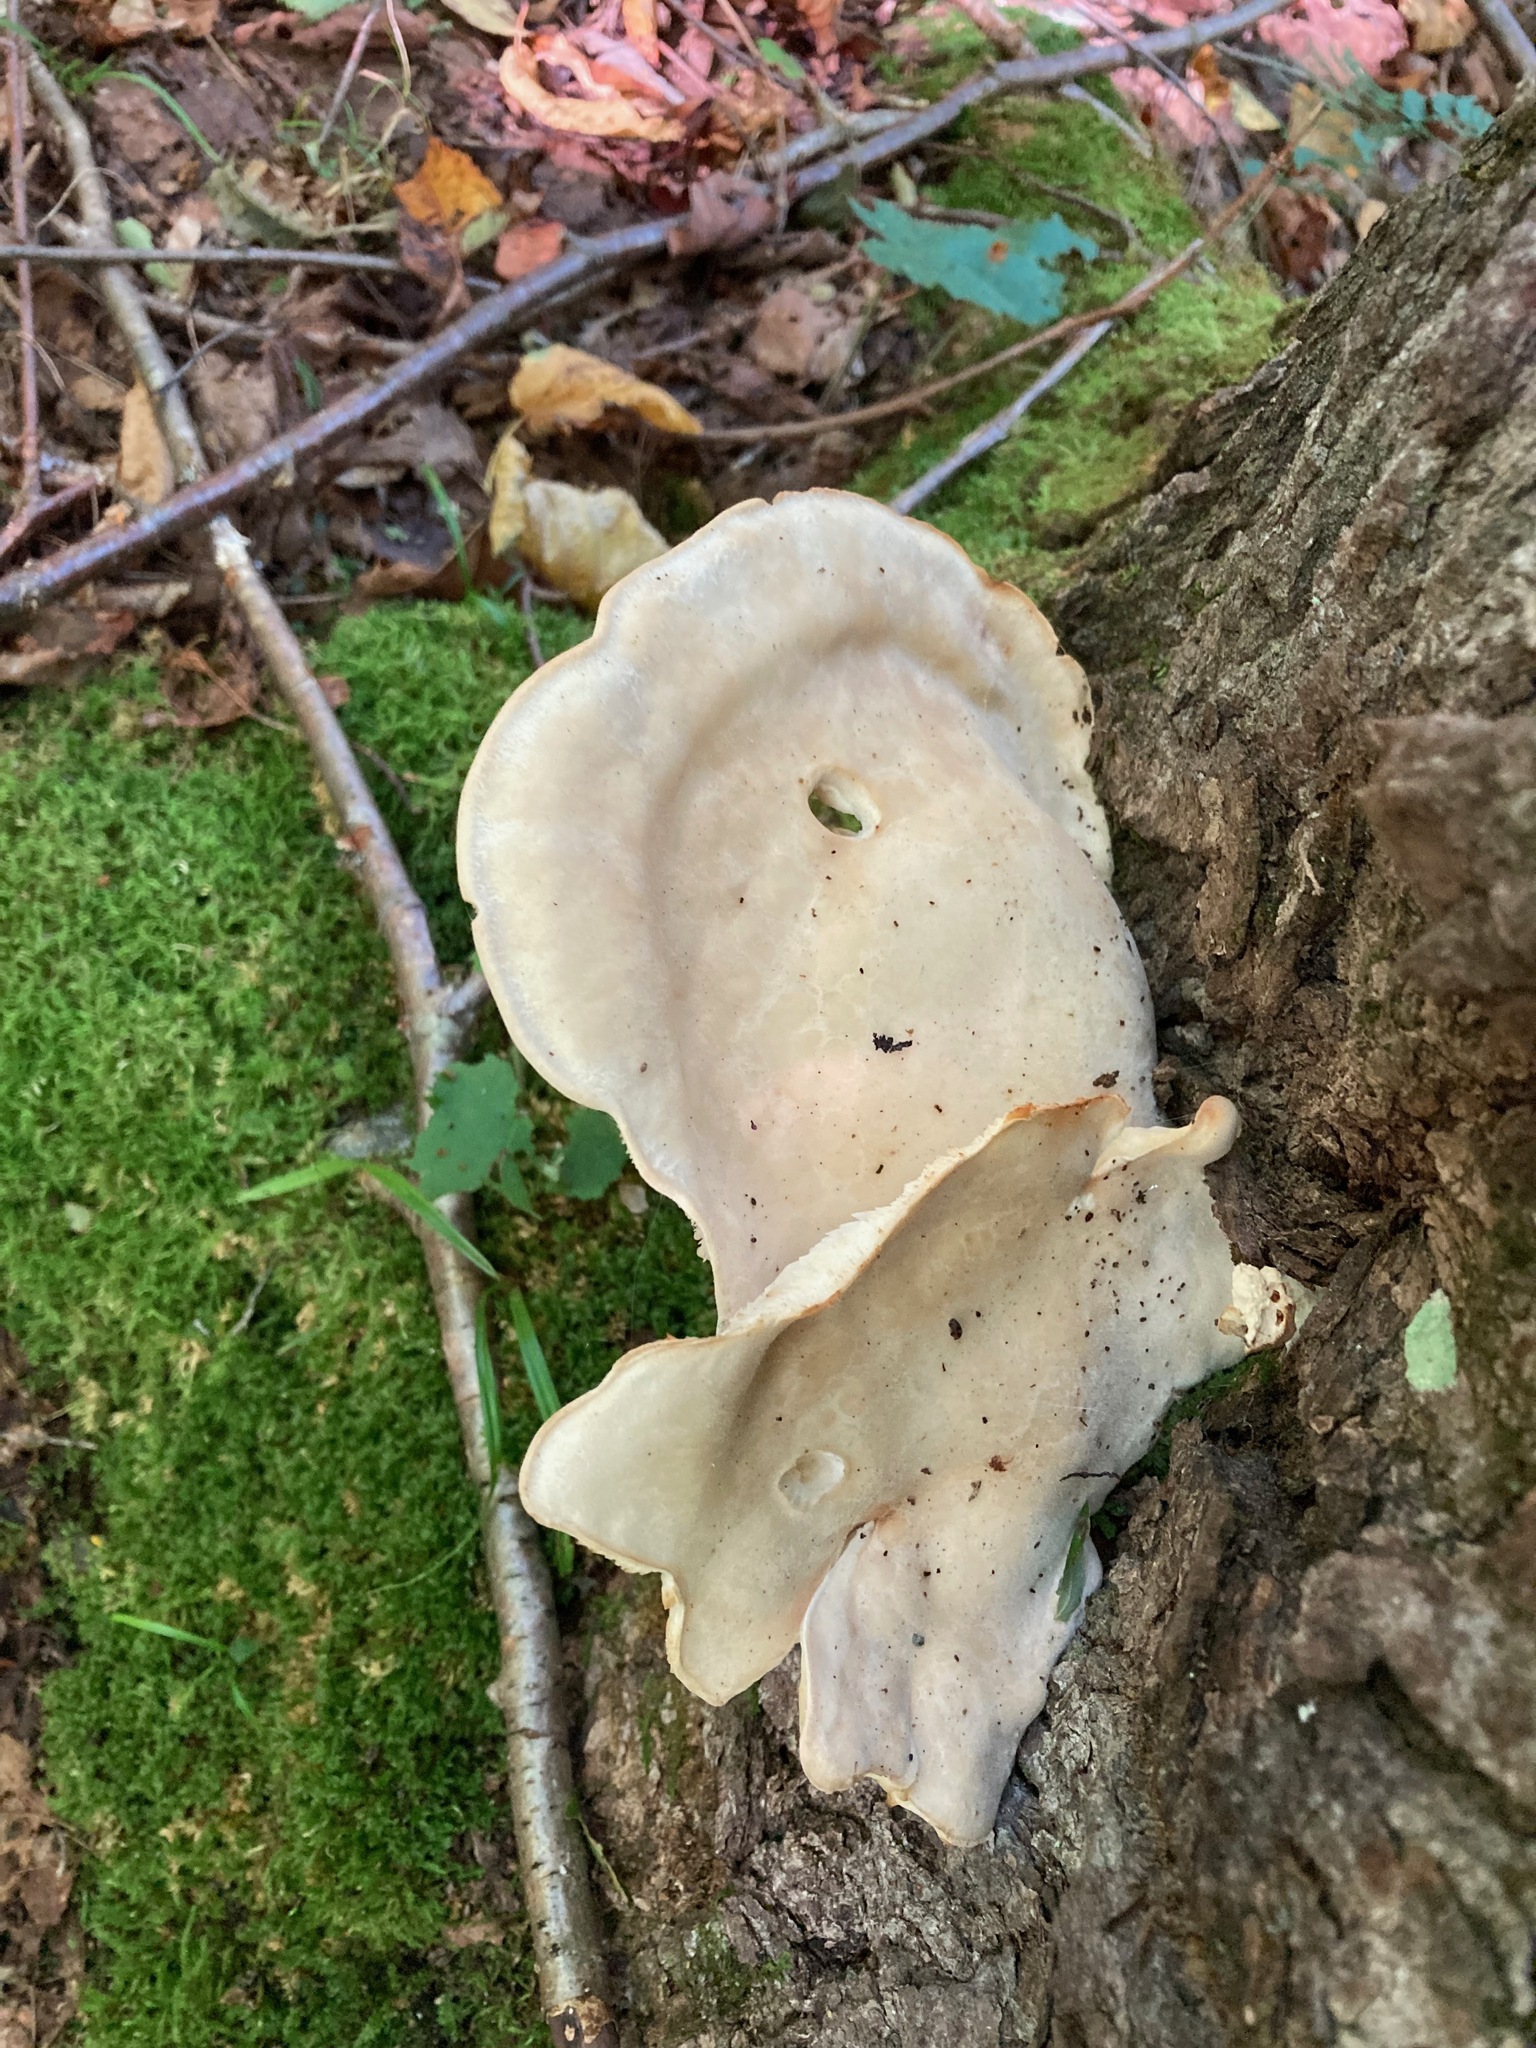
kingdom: Fungi
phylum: Basidiomycota
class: Agaricomycetes
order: Agaricales
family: Lyophyllaceae
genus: Hypsizygus
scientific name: Hypsizygus tessulatus
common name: Beech mushroom
